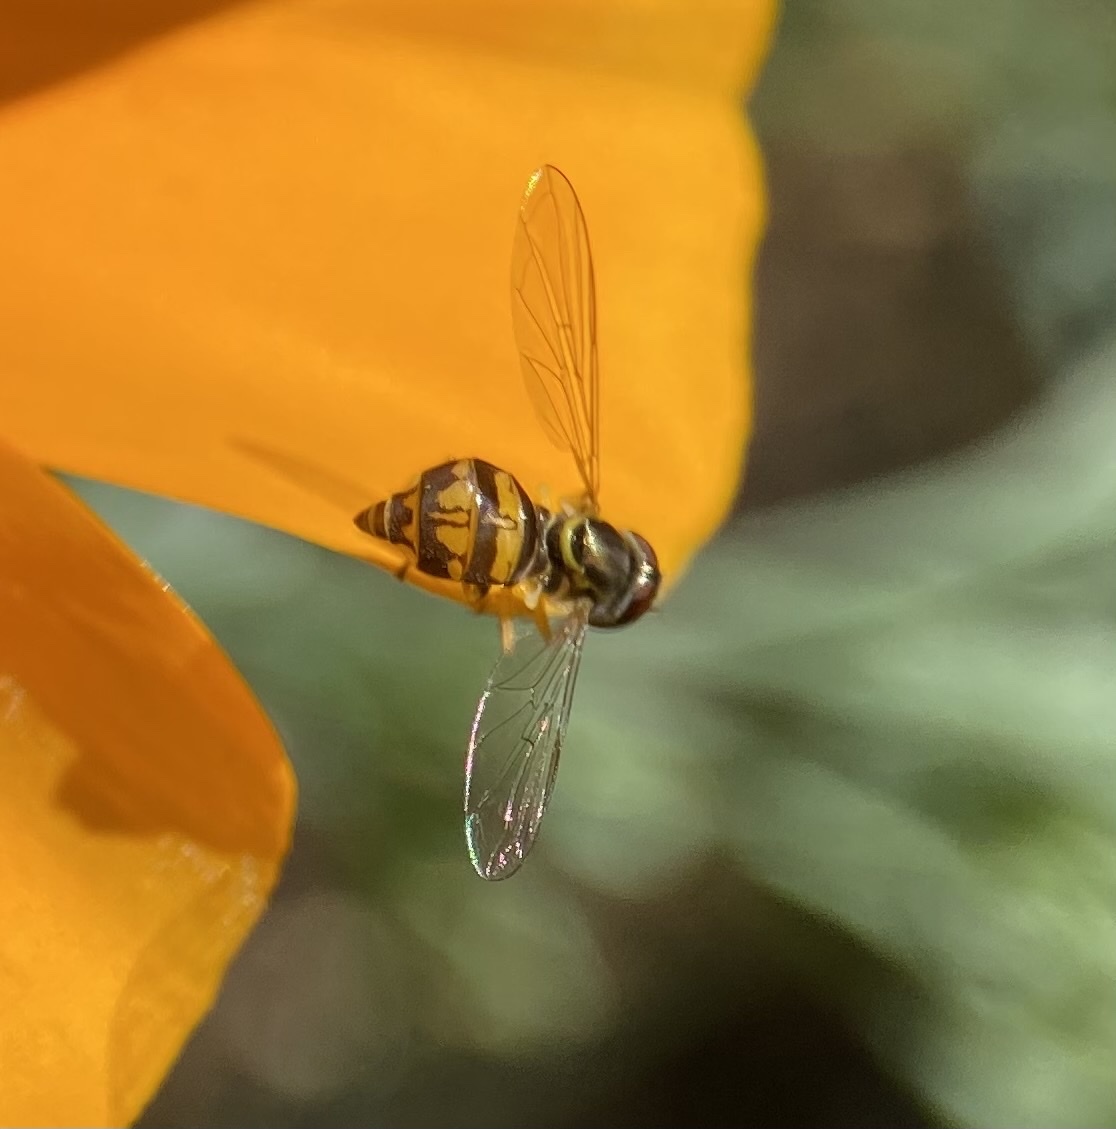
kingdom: Animalia
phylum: Arthropoda
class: Insecta
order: Diptera
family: Syrphidae
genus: Toxomerus
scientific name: Toxomerus occidentalis
